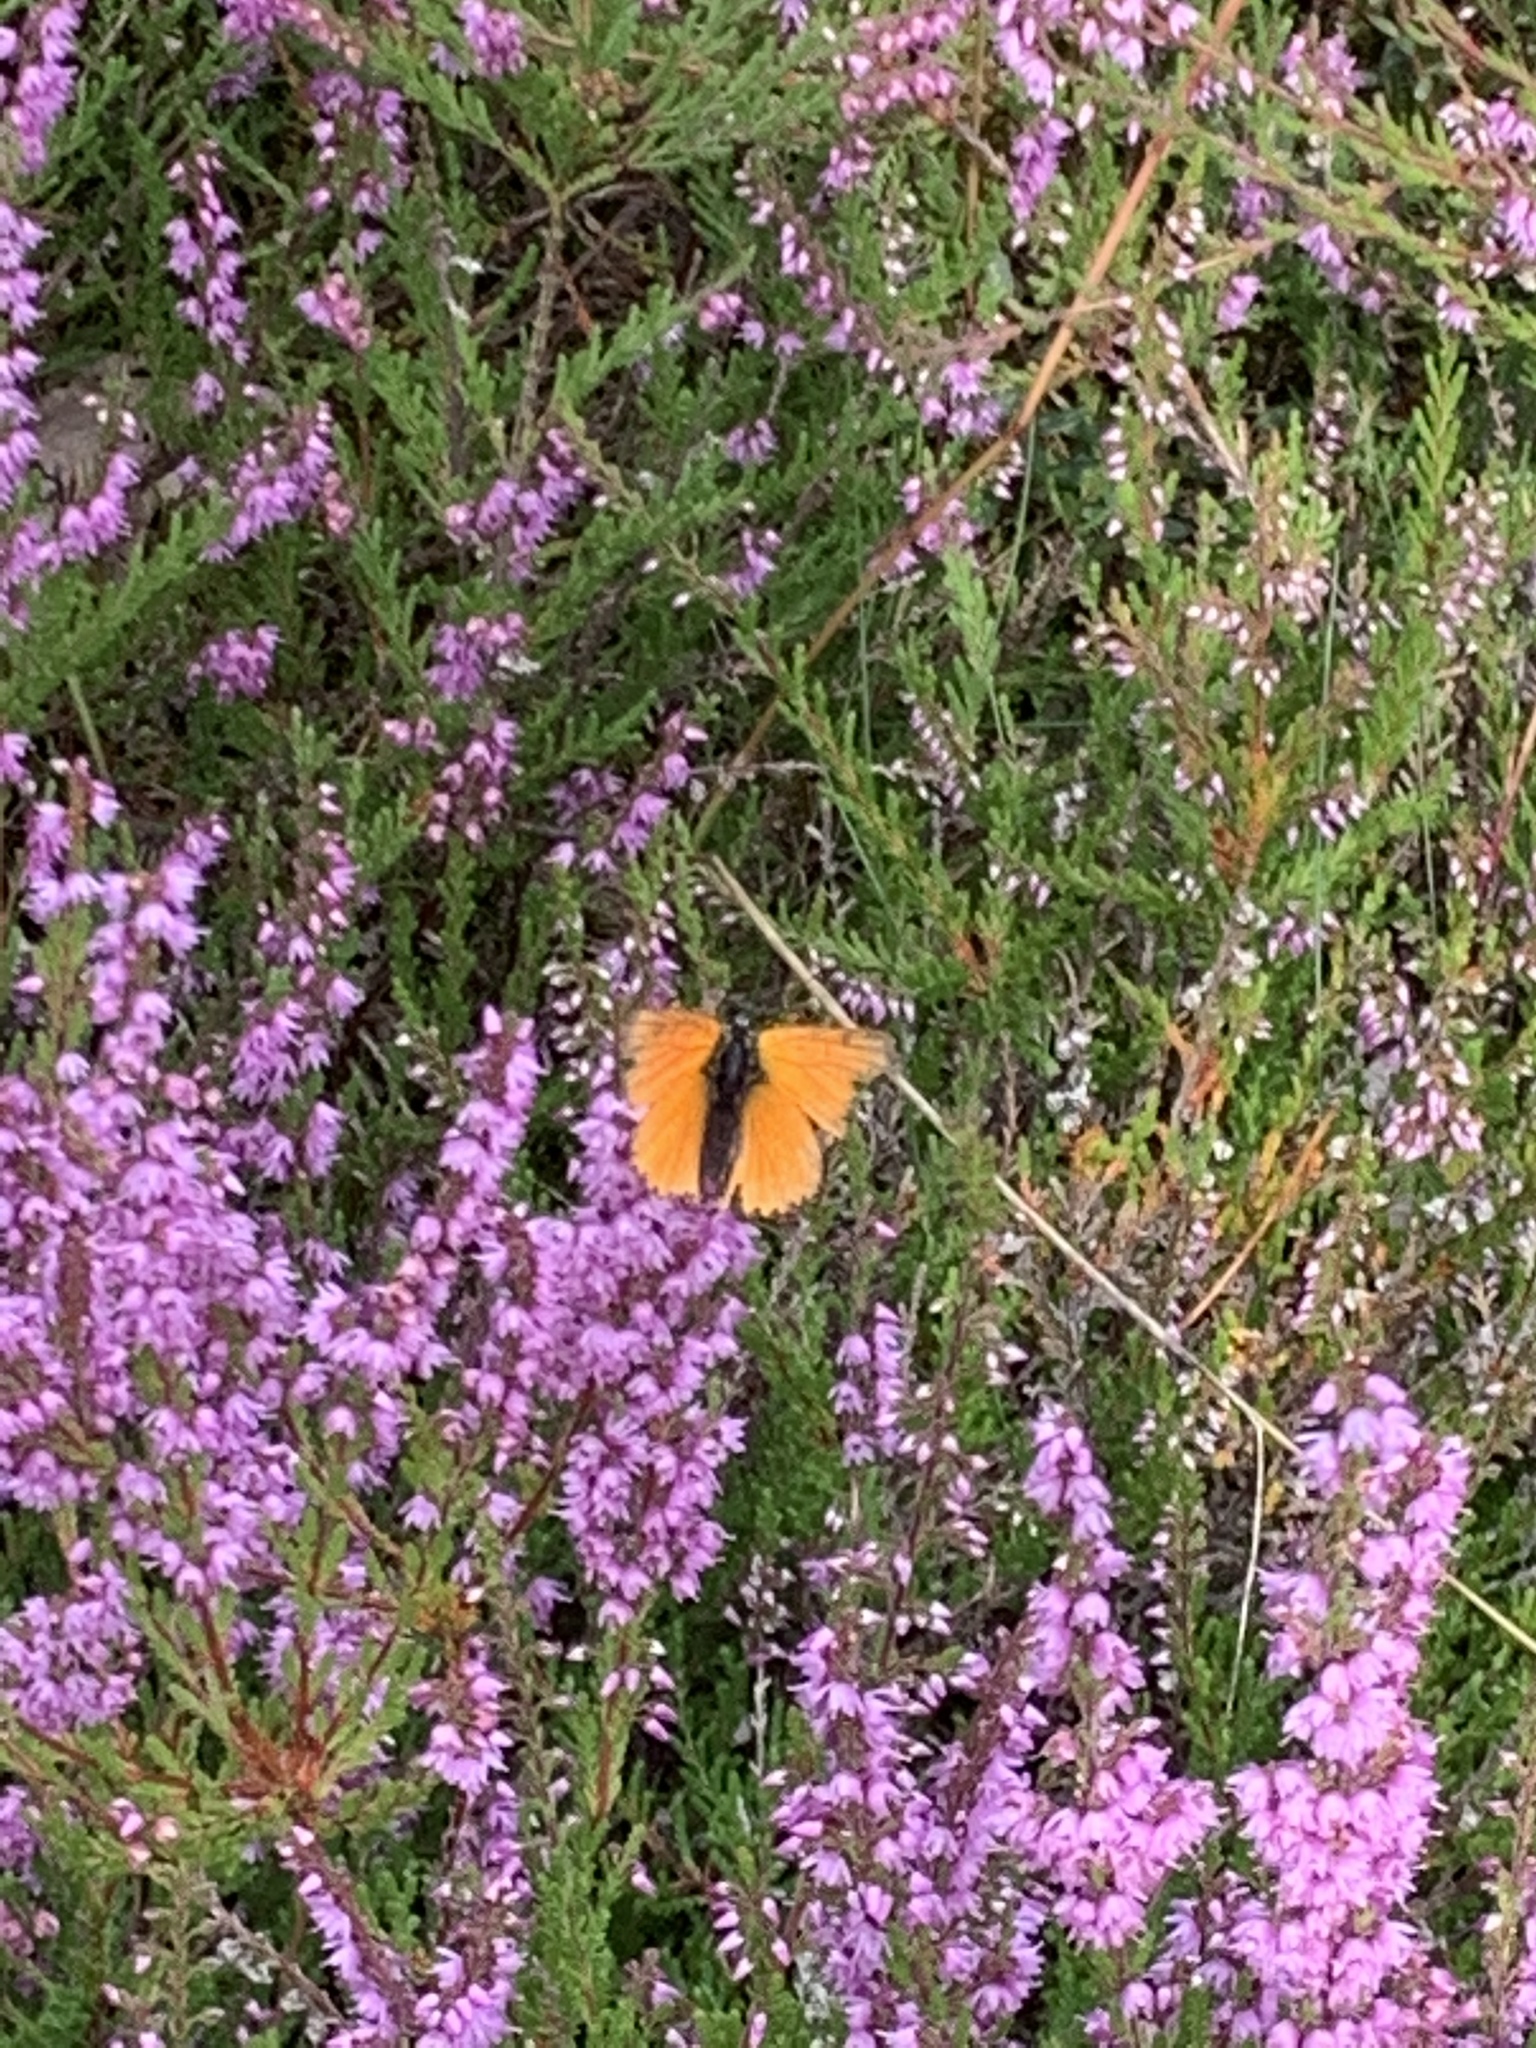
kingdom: Animalia
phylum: Arthropoda
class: Insecta
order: Lepidoptera
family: Lycaenidae
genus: Lycaena
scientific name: Lycaena virgaureae
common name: Scarce copper
